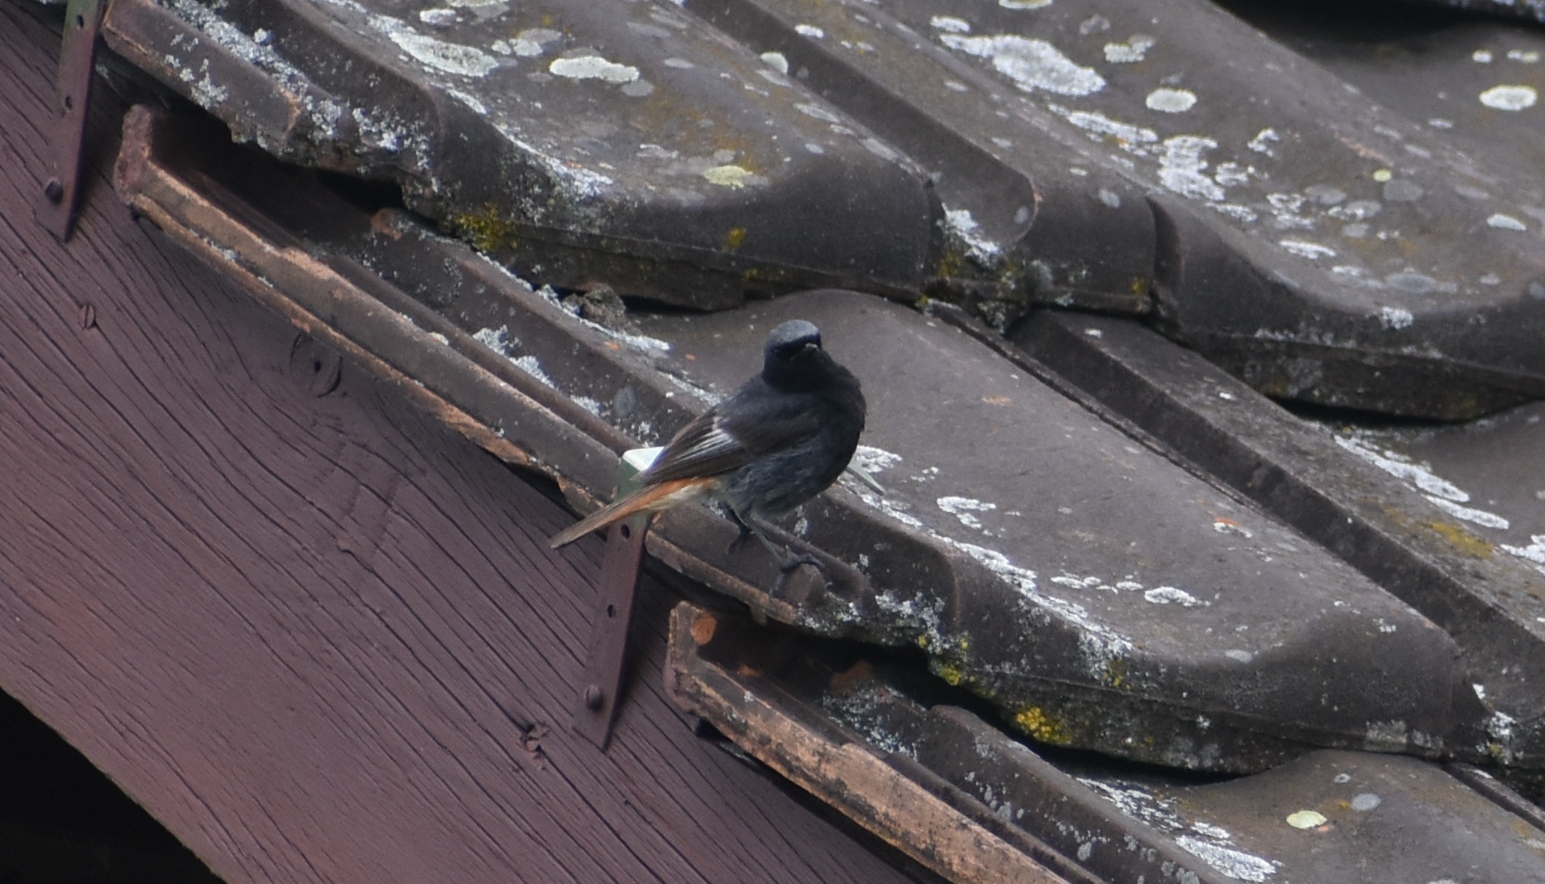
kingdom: Animalia
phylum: Chordata
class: Aves
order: Passeriformes
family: Muscicapidae
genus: Phoenicurus
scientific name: Phoenicurus ochruros
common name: Black redstart
